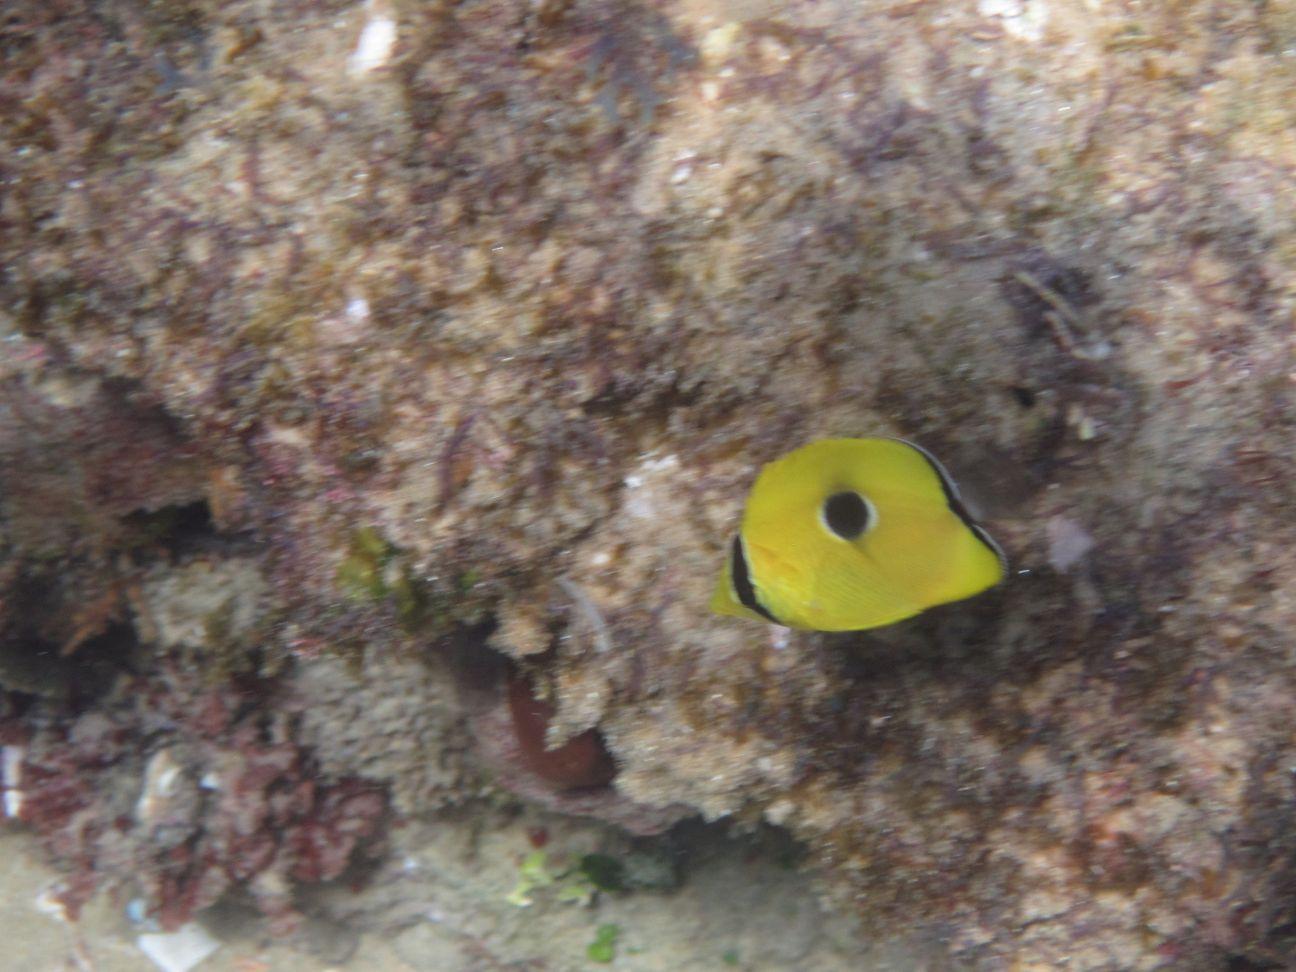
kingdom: Animalia
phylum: Chordata
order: Perciformes
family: Chaetodontidae
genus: Chaetodon
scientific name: Chaetodon interruptus
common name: Yellow teardrop butterflyfish
